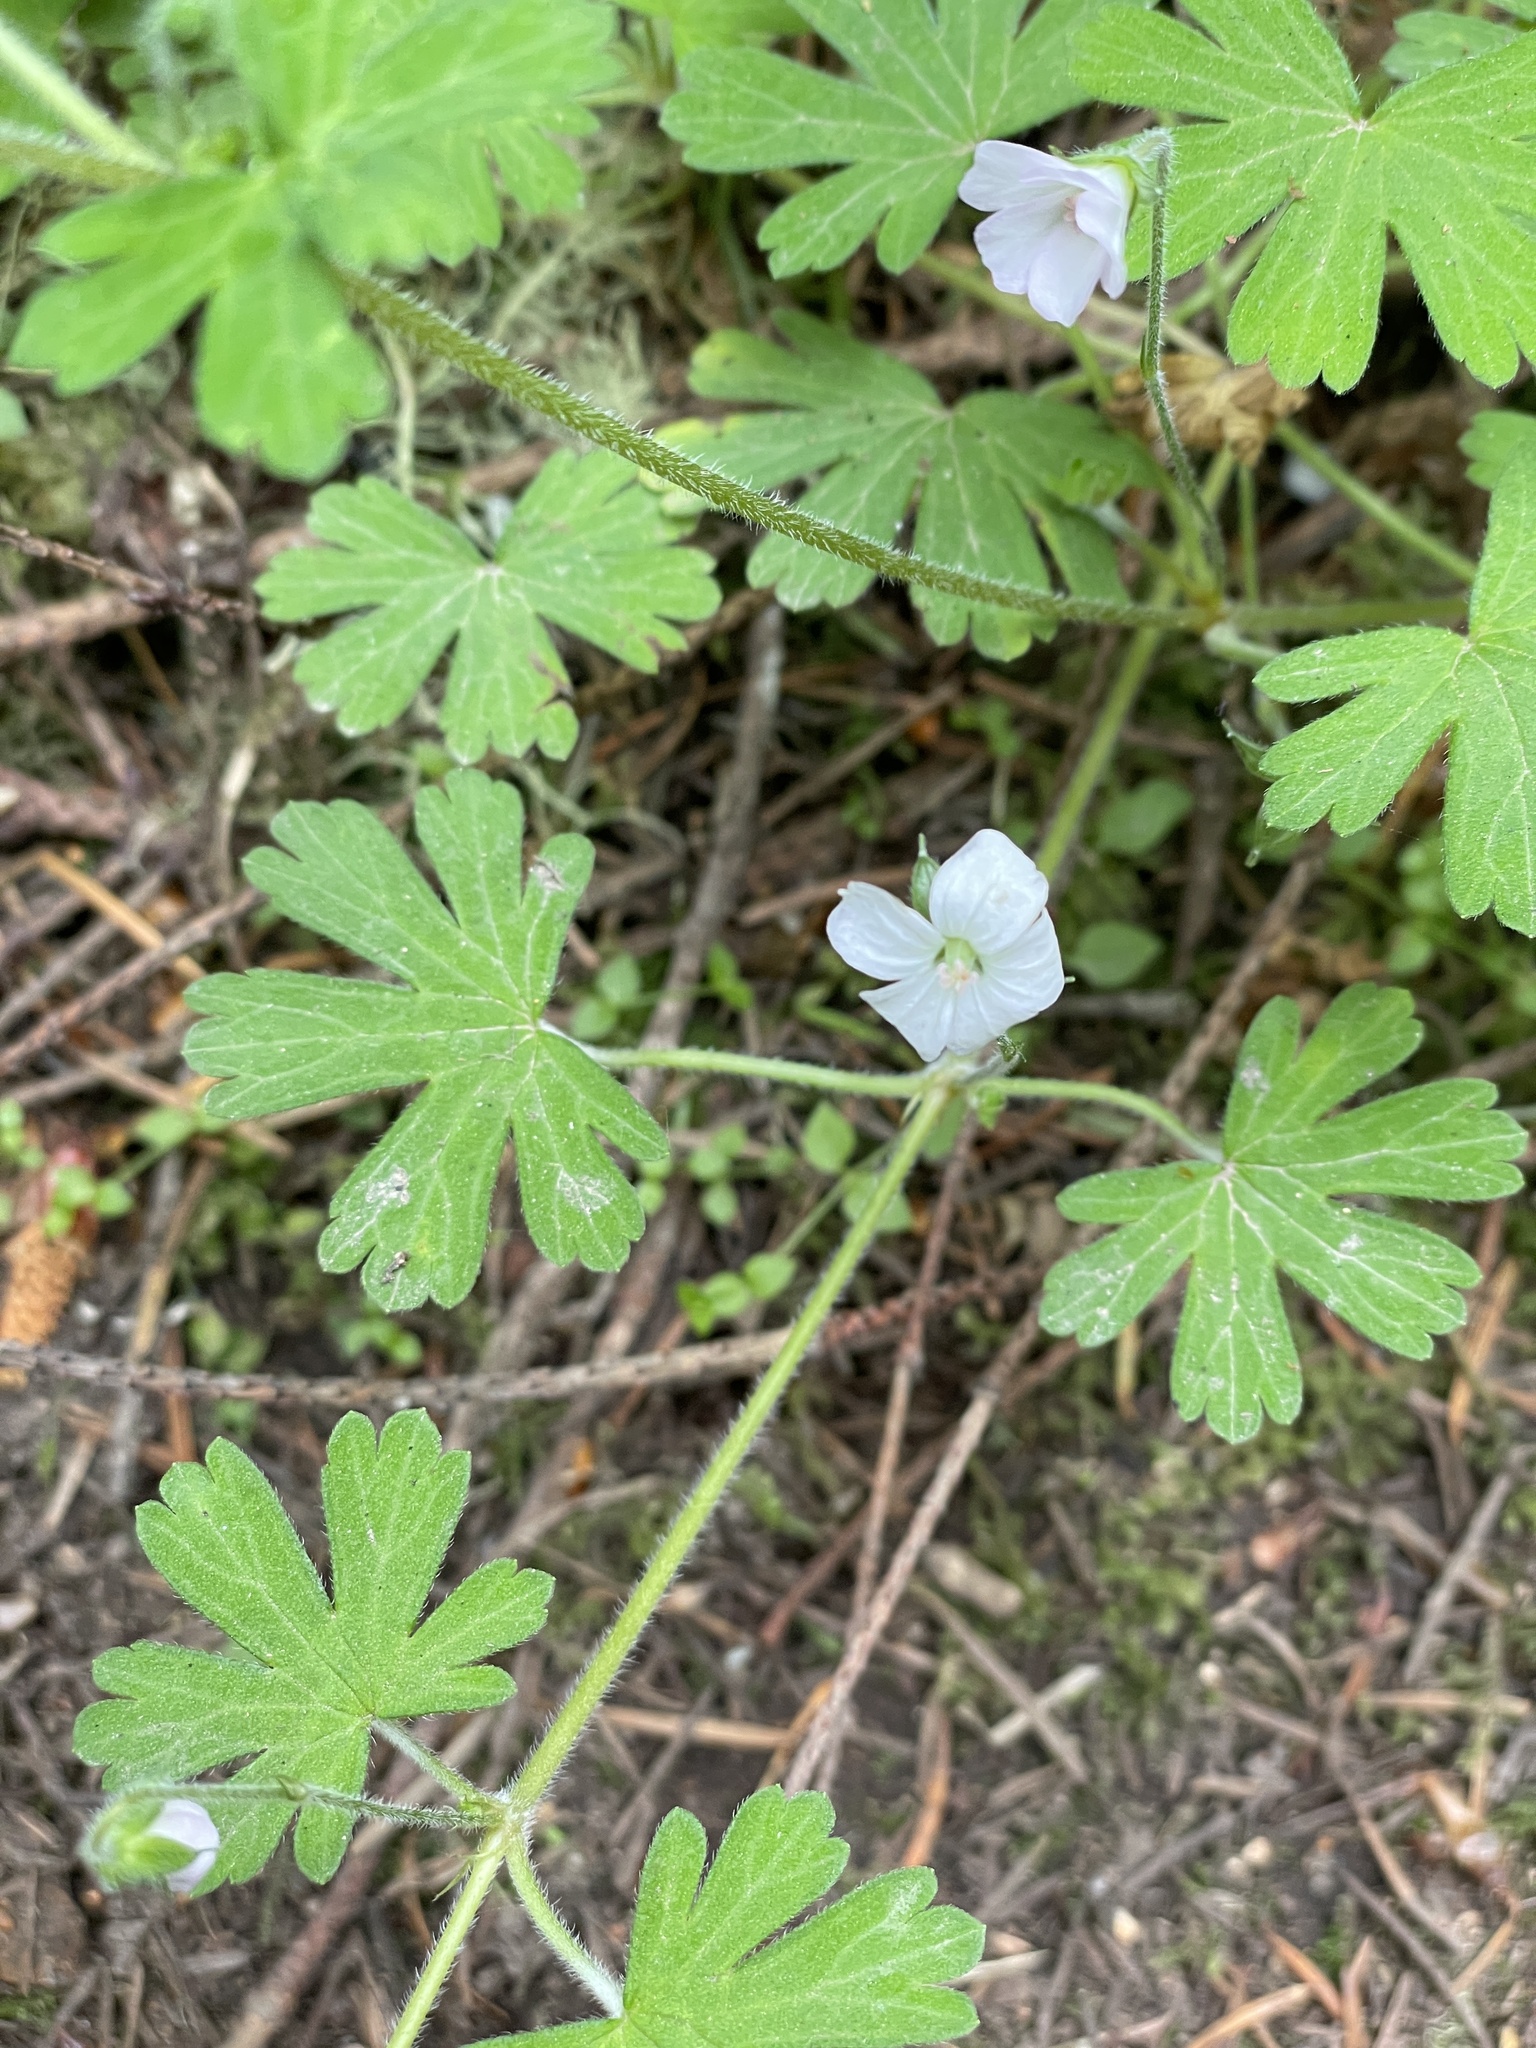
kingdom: Plantae
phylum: Tracheophyta
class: Magnoliopsida
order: Geraniales
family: Geraniaceae
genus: Geranium
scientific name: Geranium potentilloides
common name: Cinquefoil geranium
